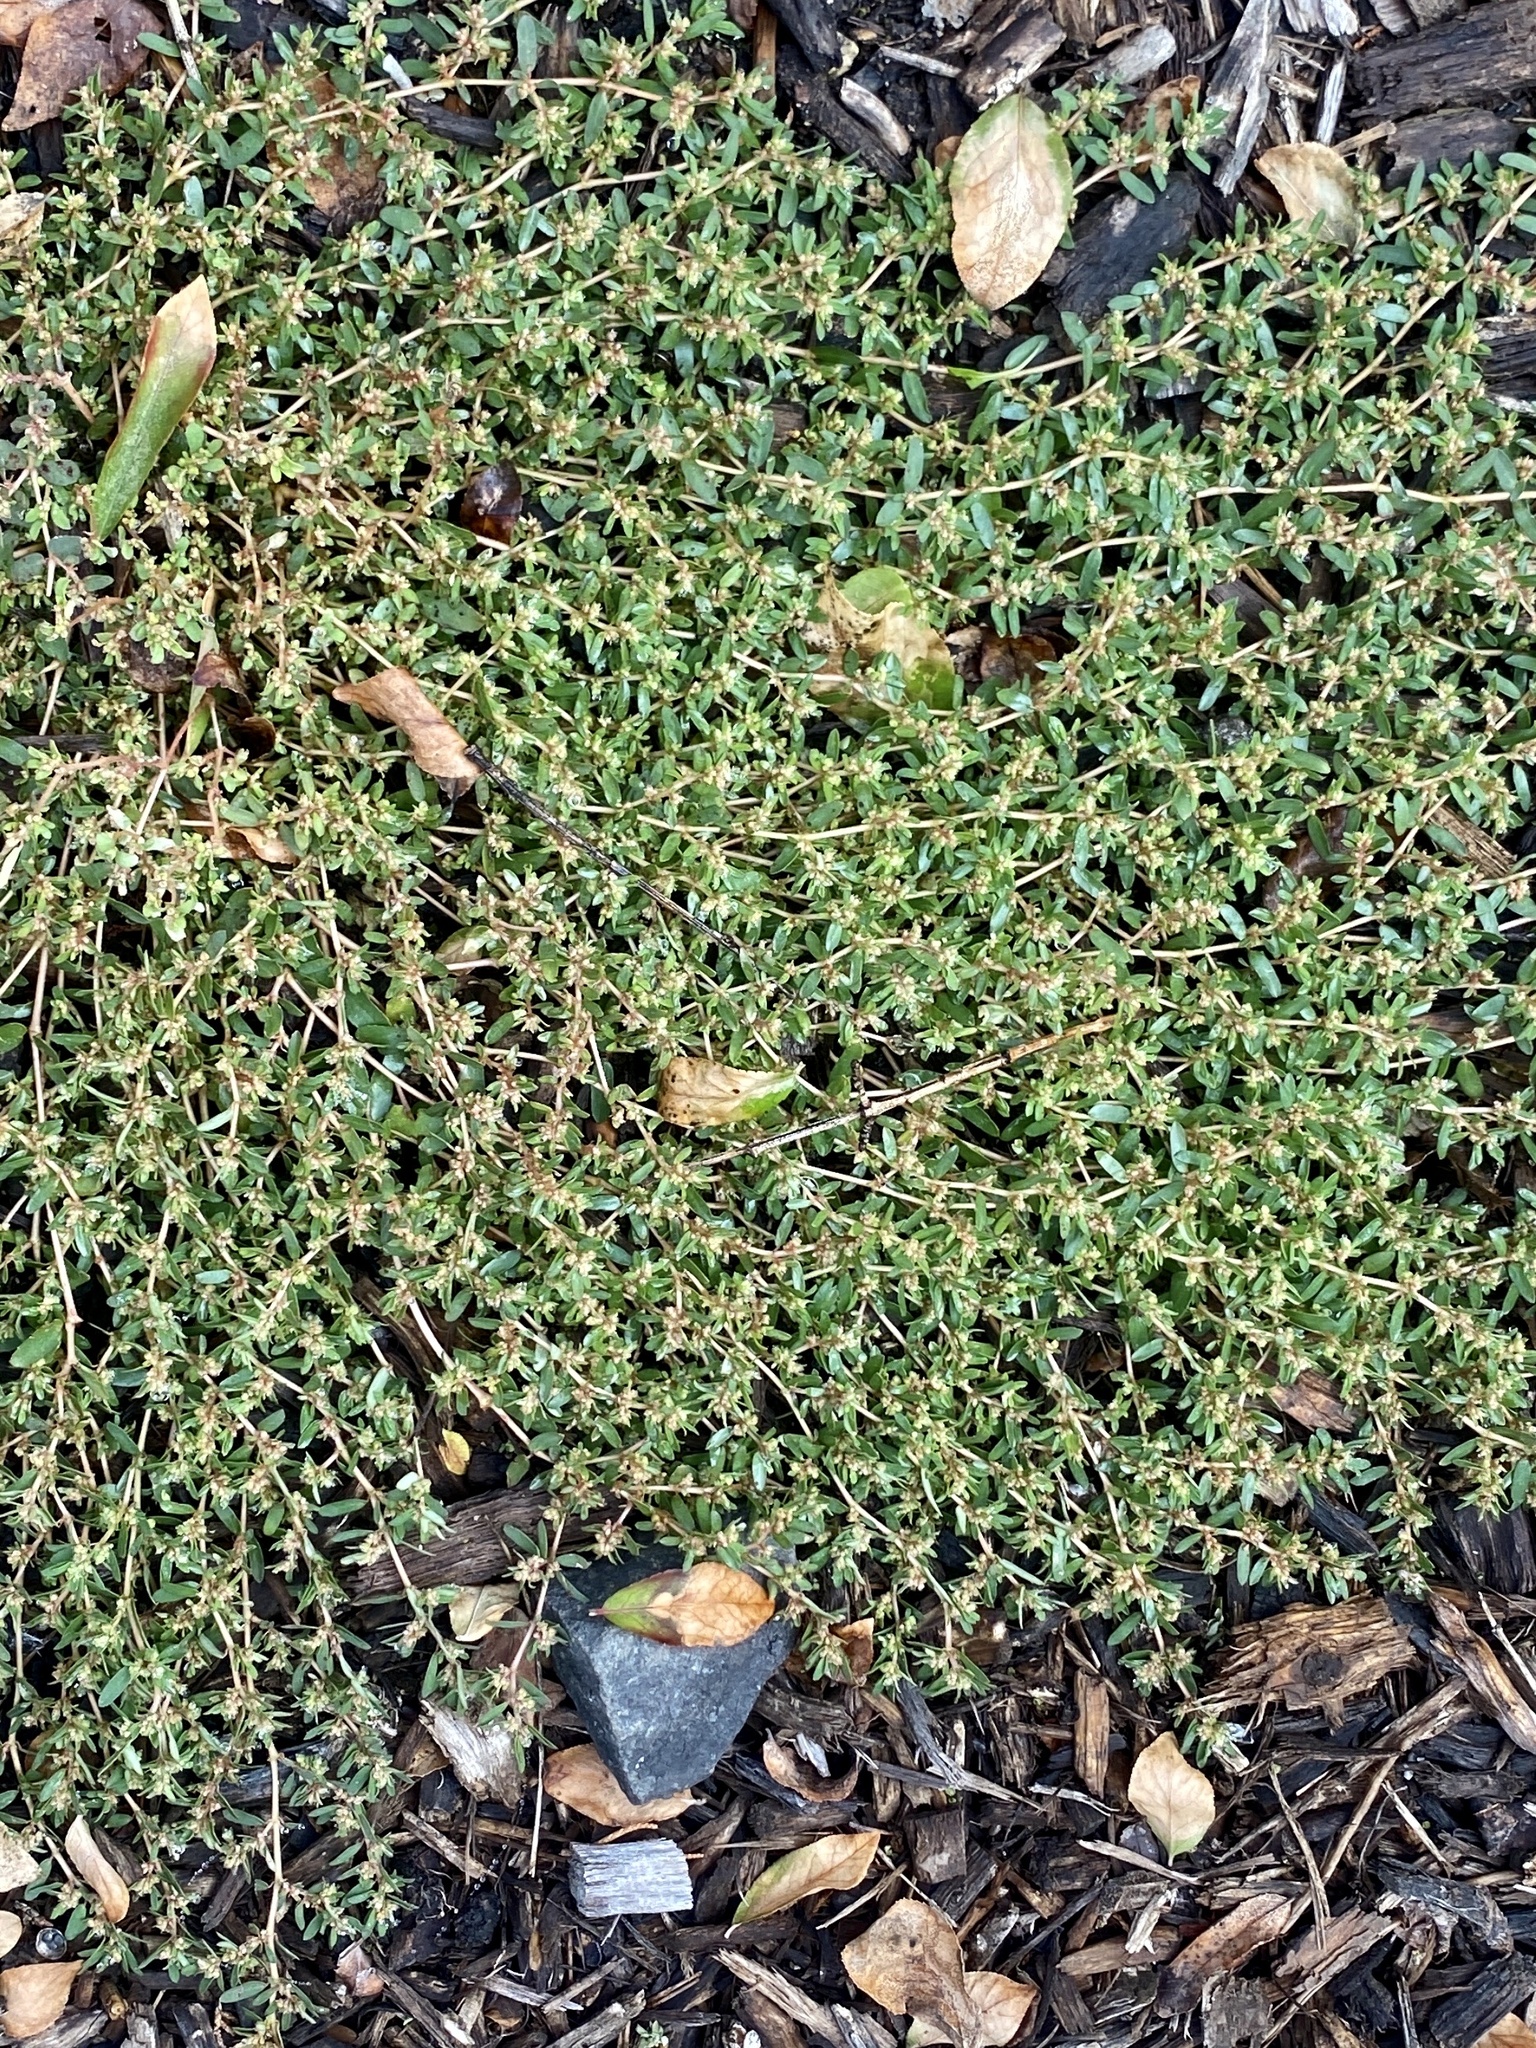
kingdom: Plantae
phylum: Tracheophyta
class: Magnoliopsida
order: Malpighiales
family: Euphorbiaceae
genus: Euphorbia
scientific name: Euphorbia maculata
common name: Spotted spurge
